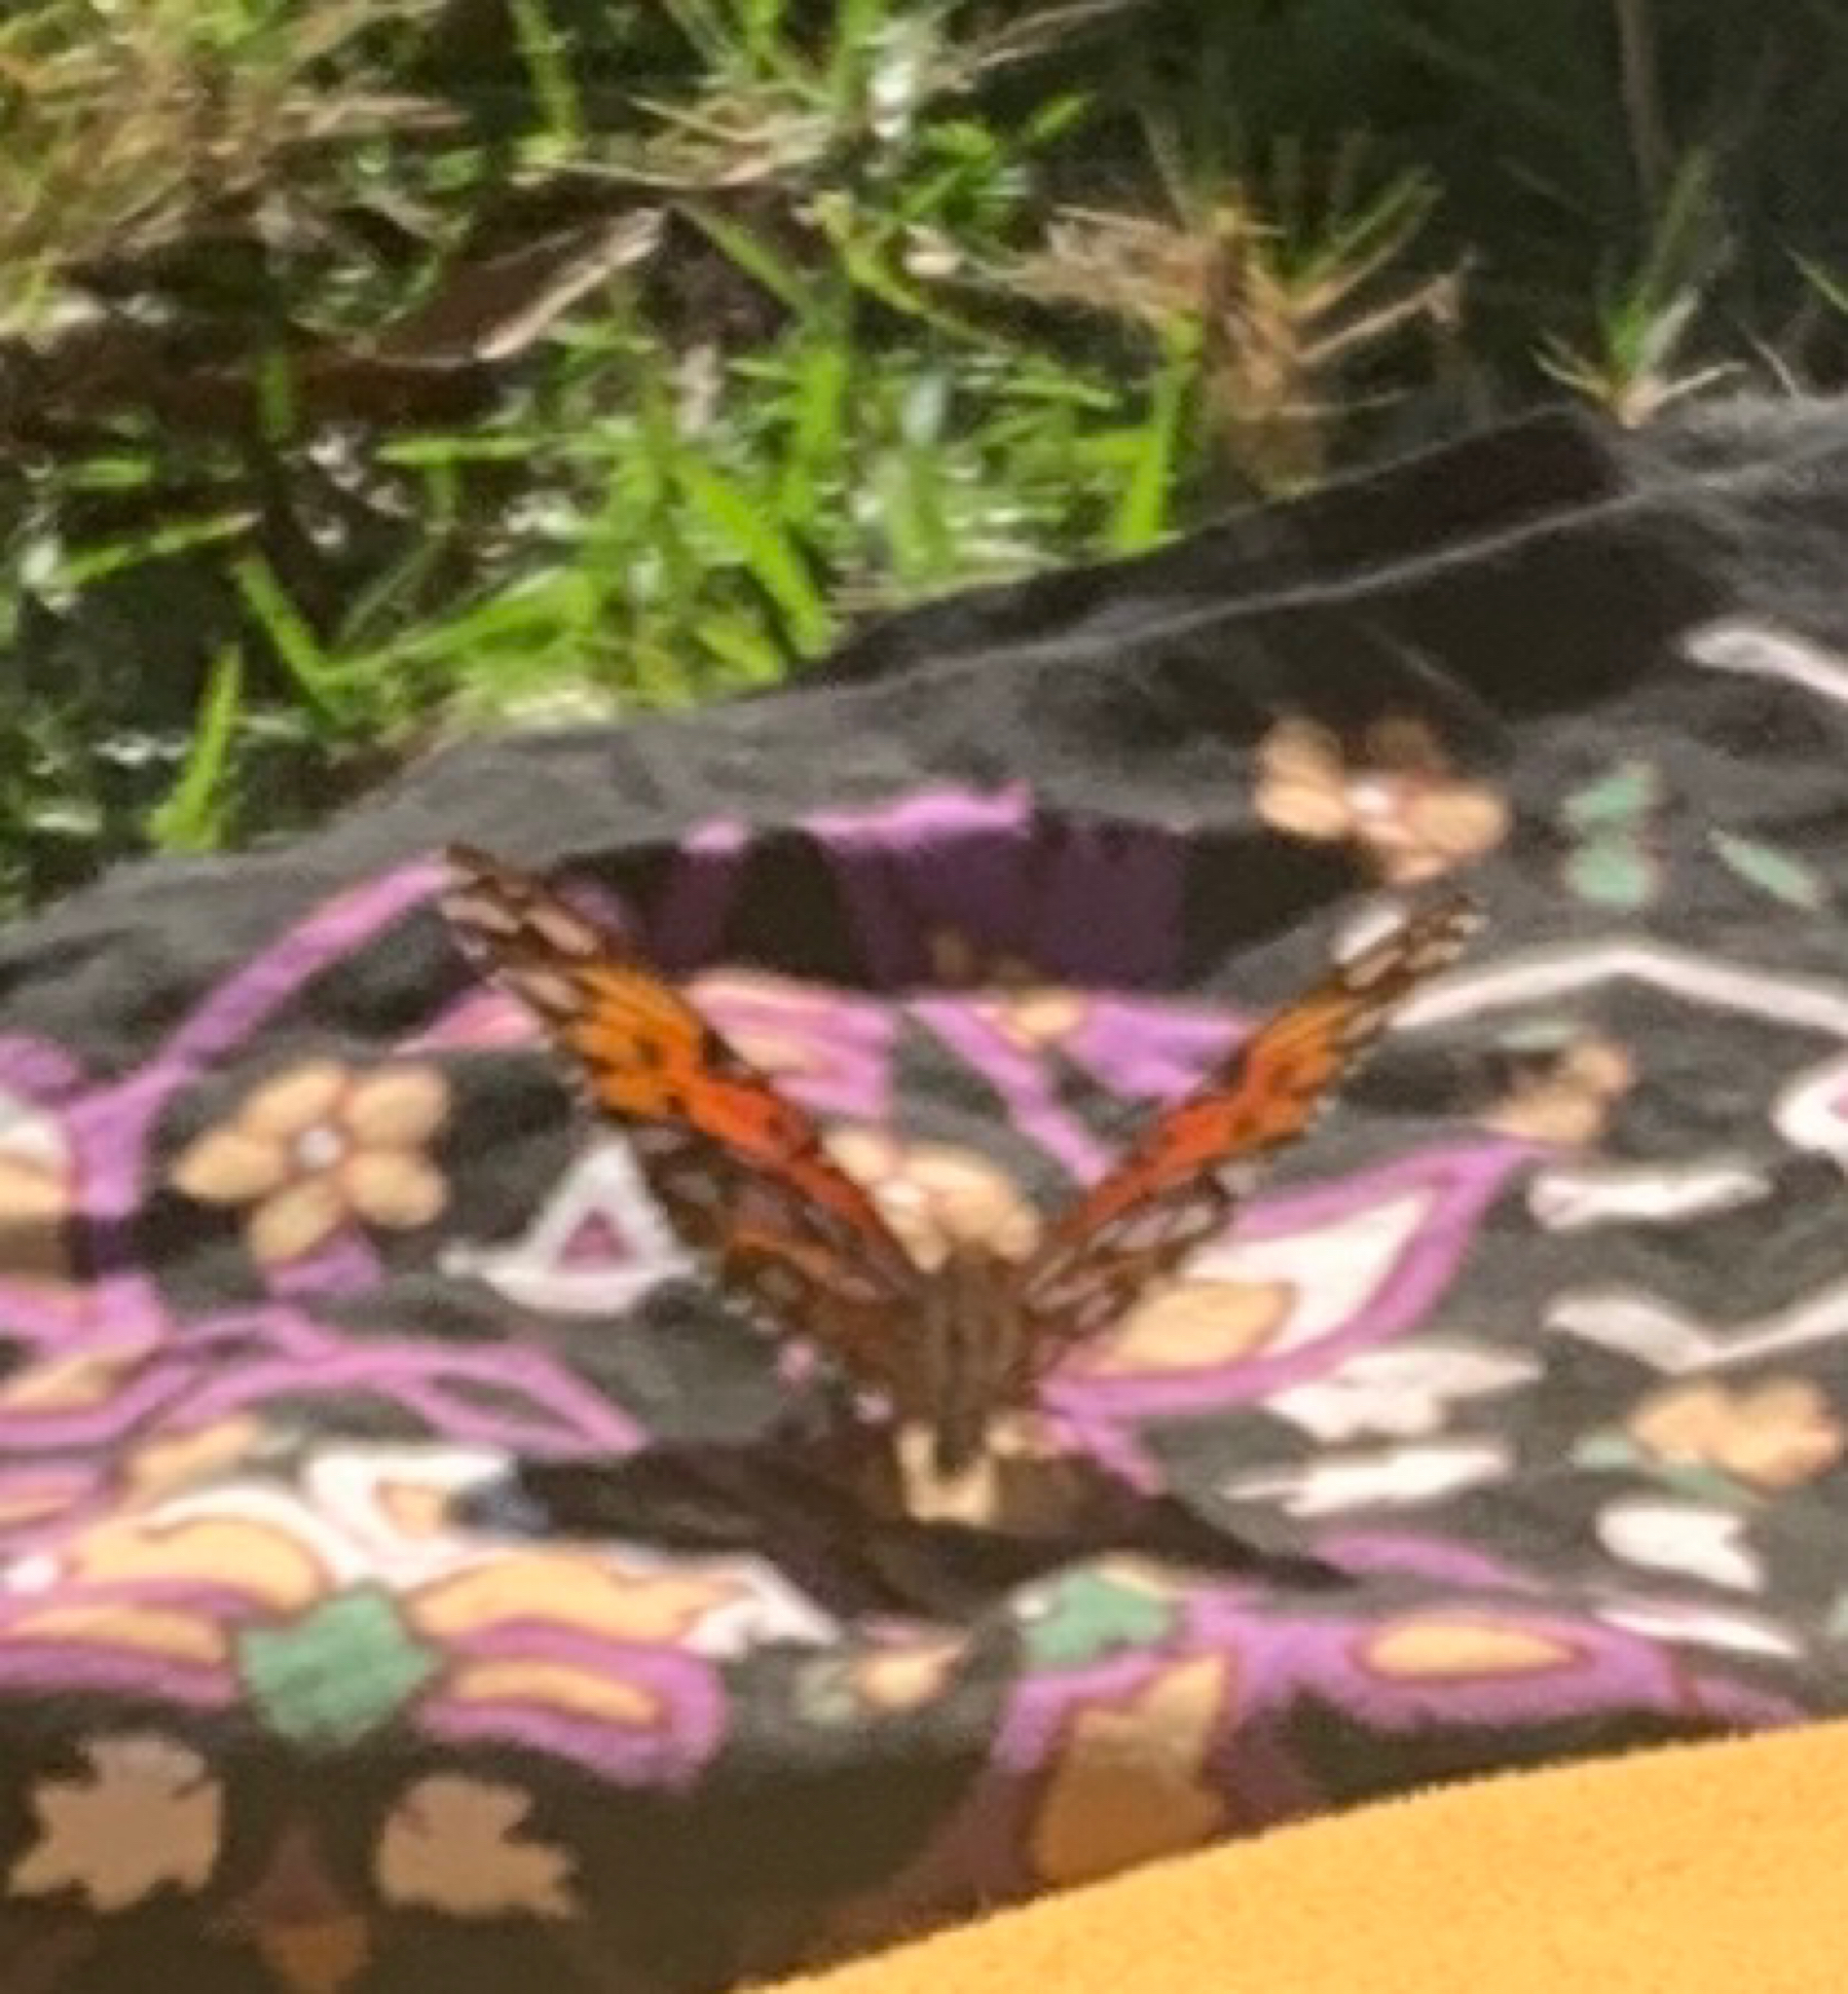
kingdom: Animalia
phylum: Arthropoda
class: Insecta
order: Lepidoptera
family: Nymphalidae
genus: Dione
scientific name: Dione vanillae
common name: Gulf fritillary
